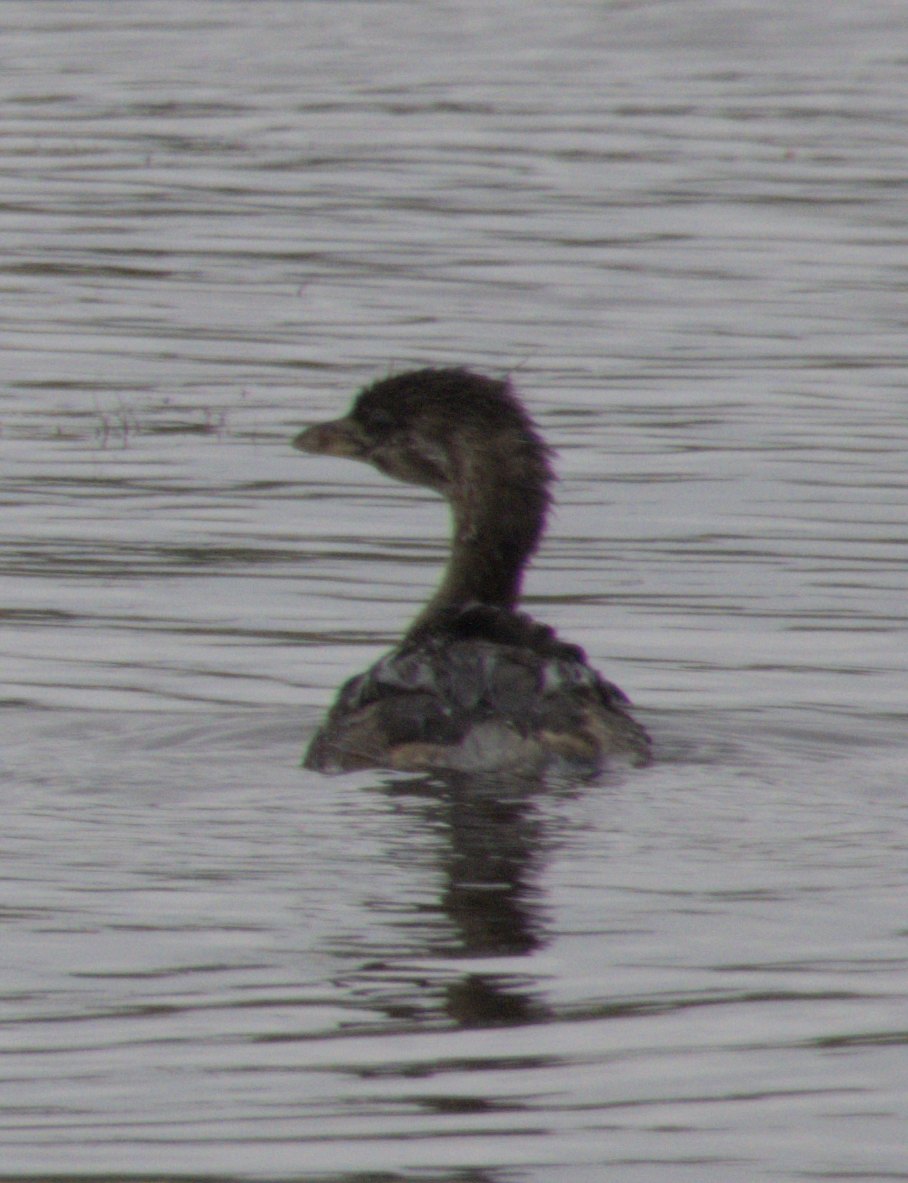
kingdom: Animalia
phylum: Chordata
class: Aves
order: Podicipediformes
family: Podicipedidae
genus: Podilymbus
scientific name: Podilymbus podiceps
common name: Pied-billed grebe
